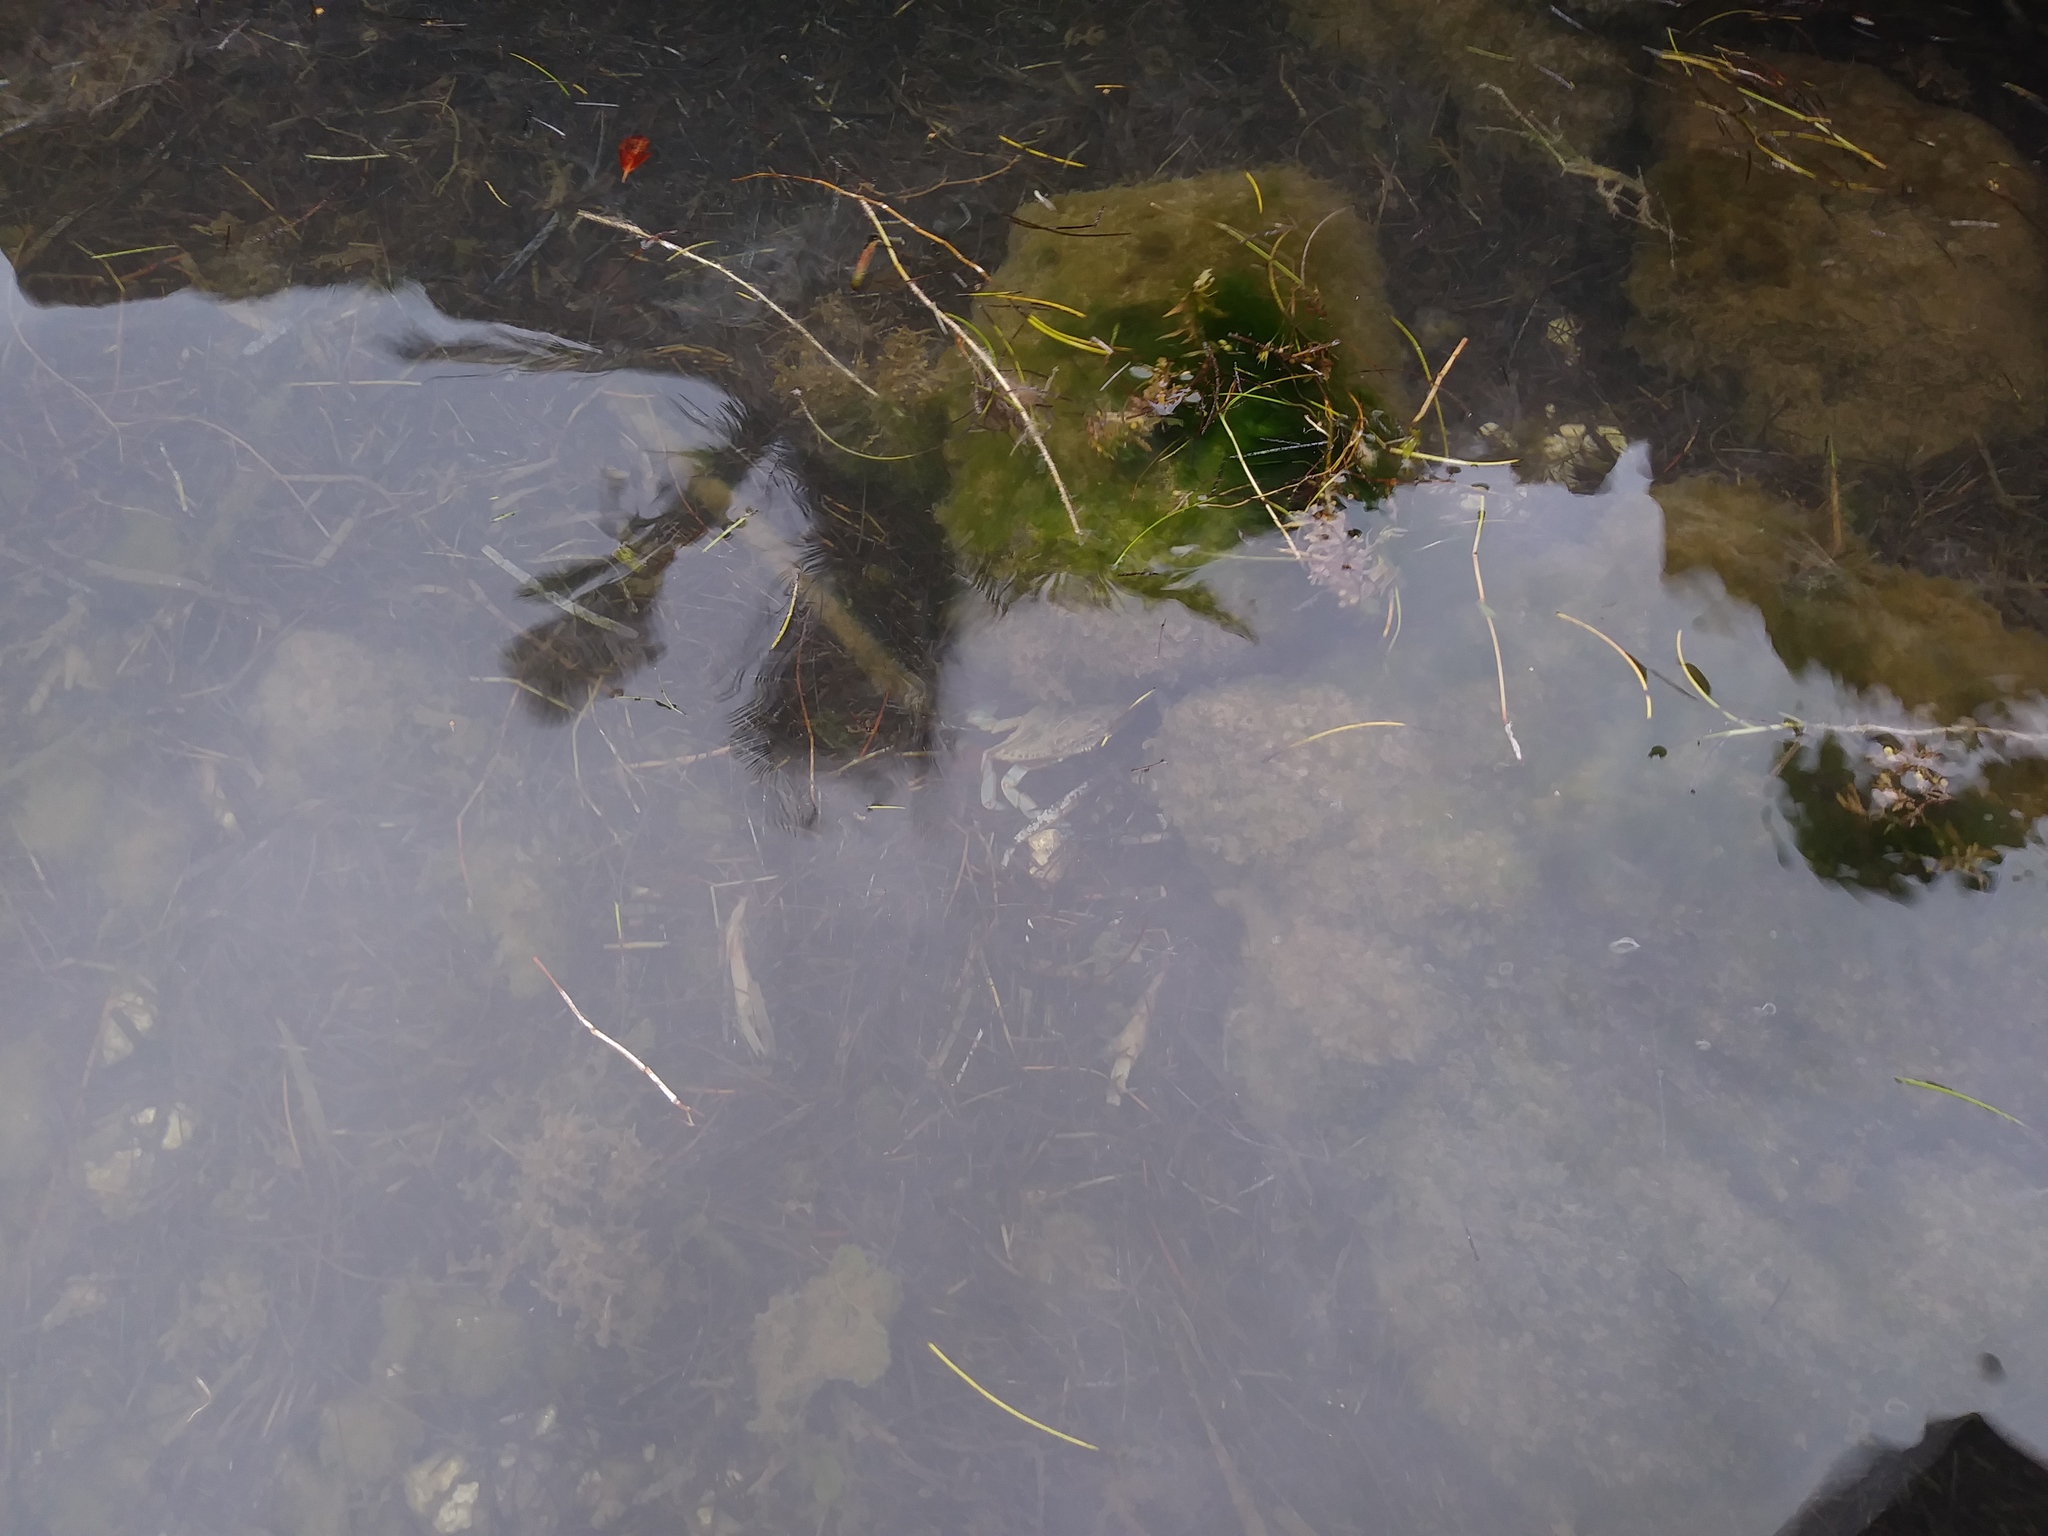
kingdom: Animalia
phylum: Arthropoda
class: Malacostraca
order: Decapoda
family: Portunidae
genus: Callinectes
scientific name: Callinectes sapidus
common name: Blue crab
